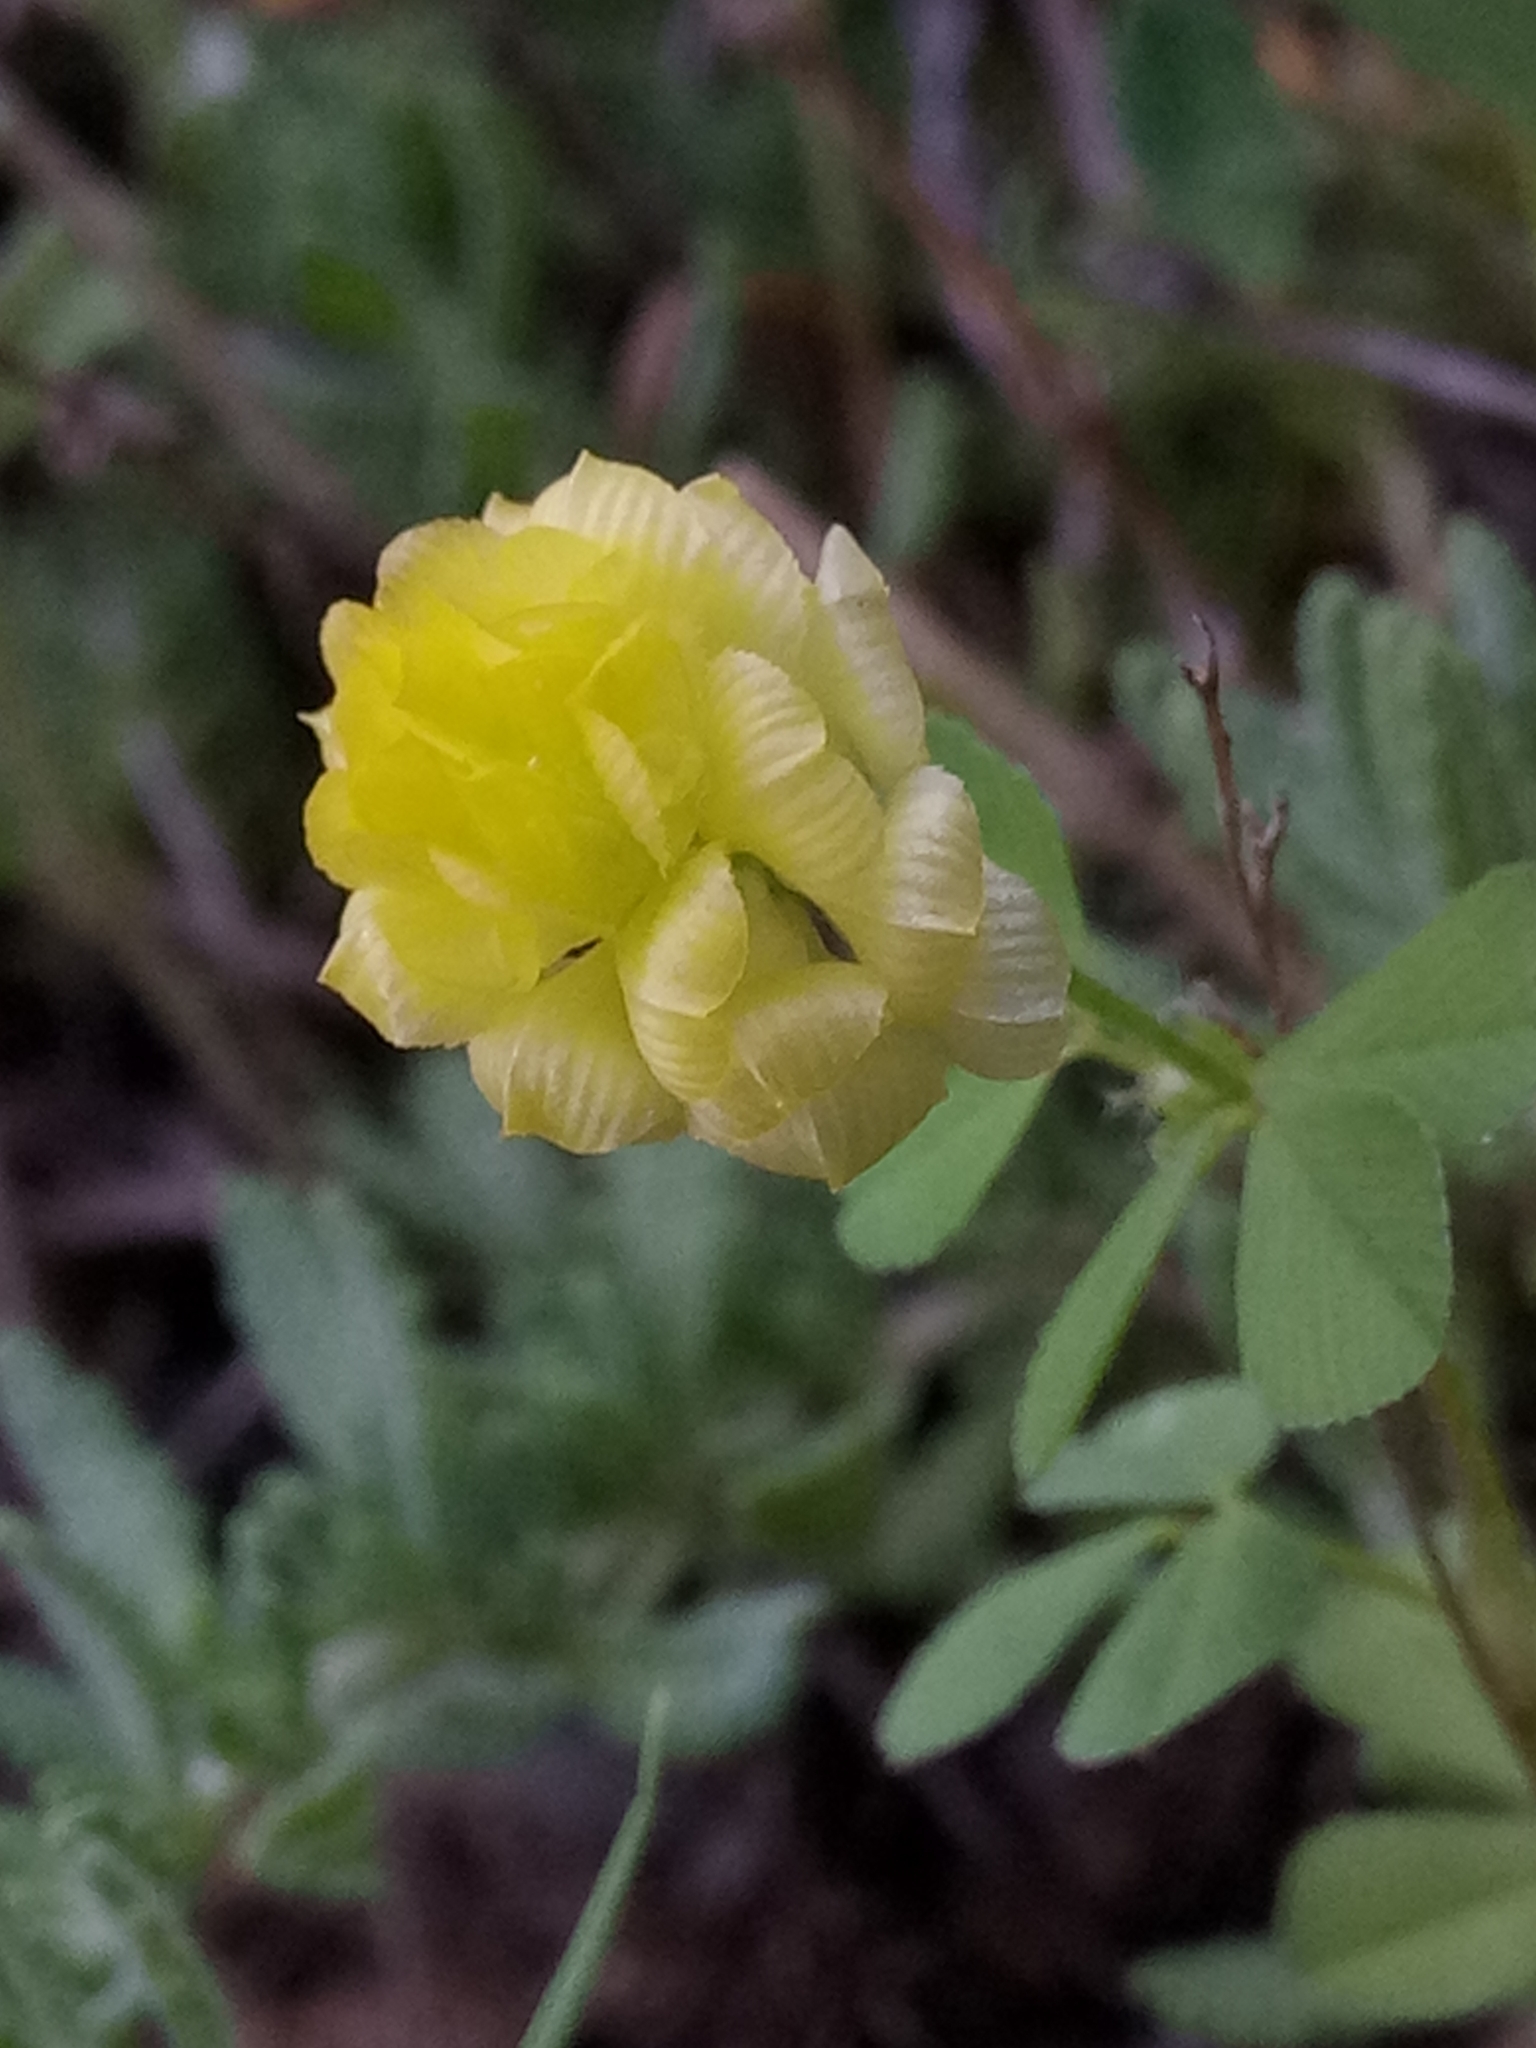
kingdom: Plantae
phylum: Tracheophyta
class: Magnoliopsida
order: Fabales
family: Fabaceae
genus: Trifolium
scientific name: Trifolium campestre
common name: Field clover
